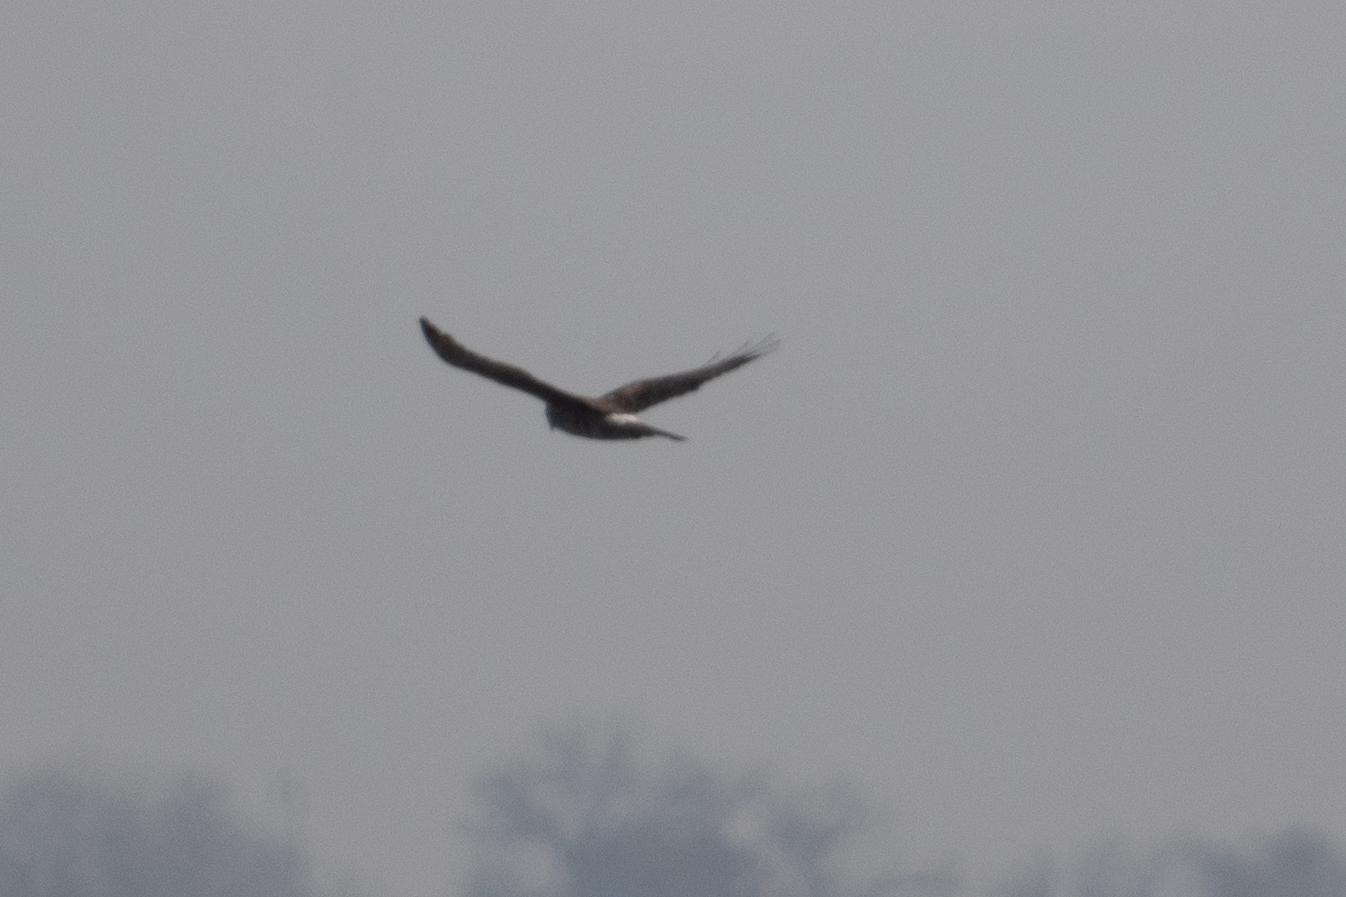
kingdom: Animalia
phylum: Chordata
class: Aves
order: Accipitriformes
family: Accipitridae
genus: Circus
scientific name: Circus cyaneus
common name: Hen harrier
